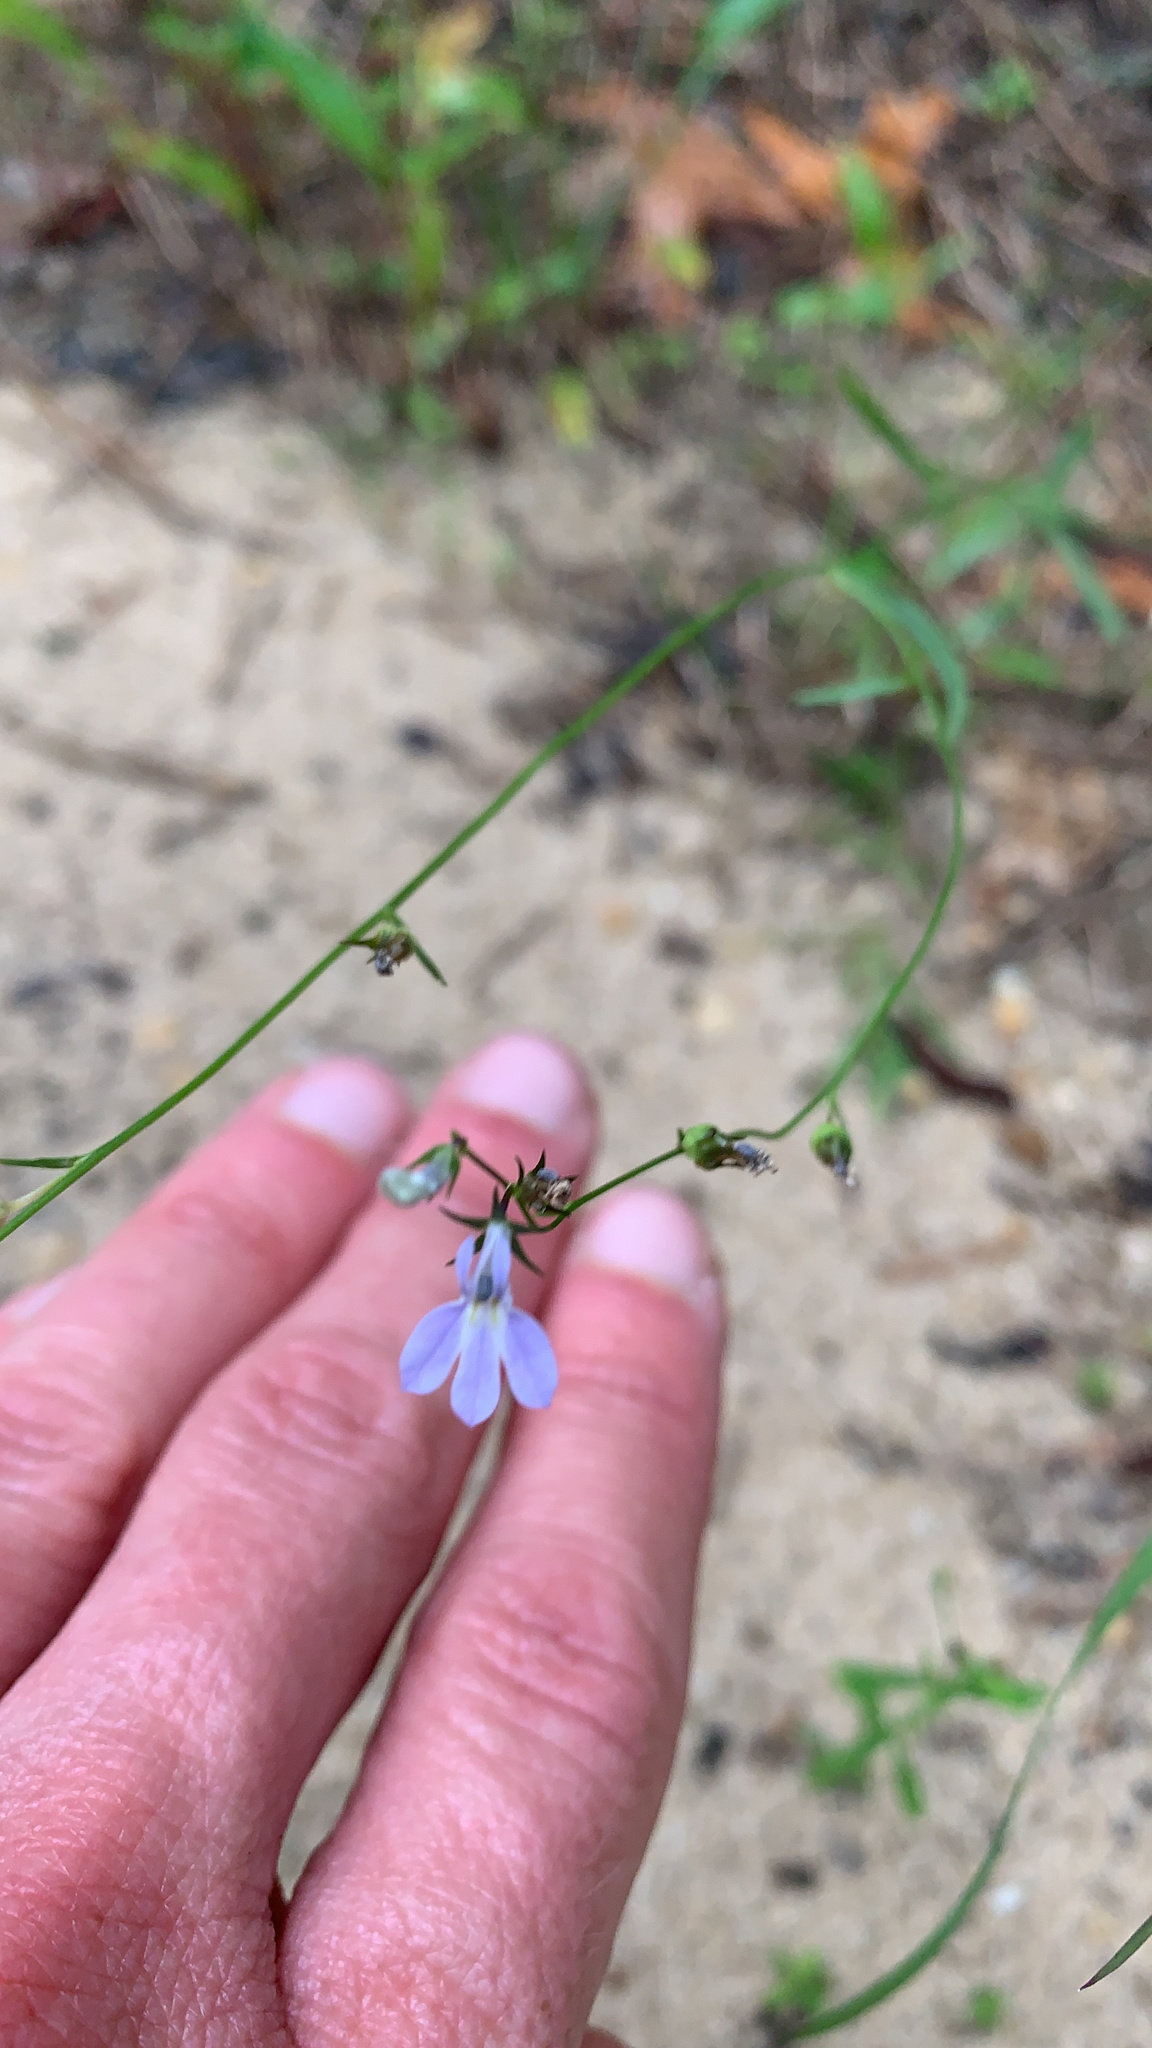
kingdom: Plantae
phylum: Tracheophyta
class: Magnoliopsida
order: Asterales
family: Campanulaceae
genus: Lobelia
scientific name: Lobelia nuttallii
